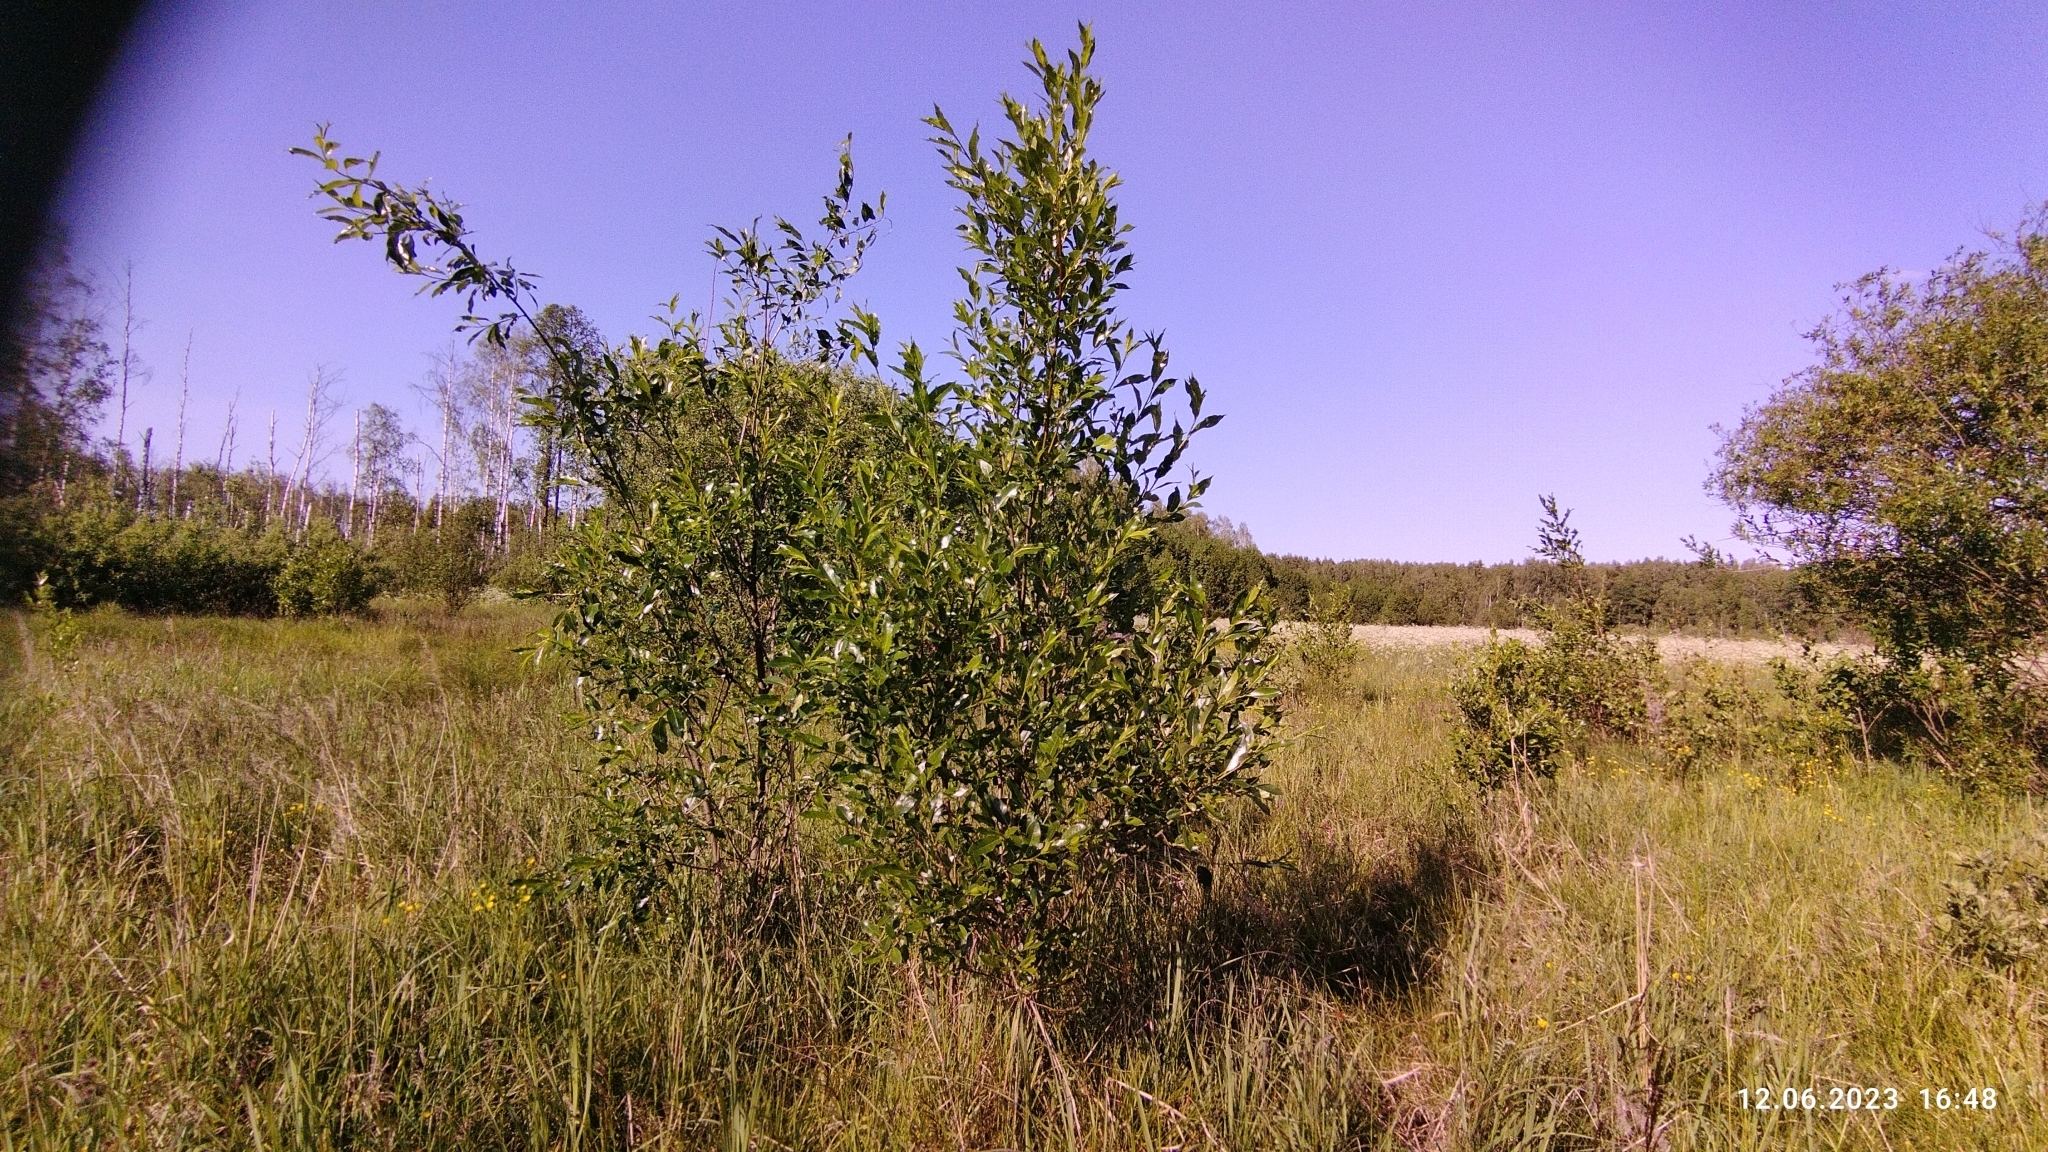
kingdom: Plantae
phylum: Tracheophyta
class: Magnoliopsida
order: Malpighiales
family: Salicaceae
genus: Salix
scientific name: Salix pentandra
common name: Bay willow
